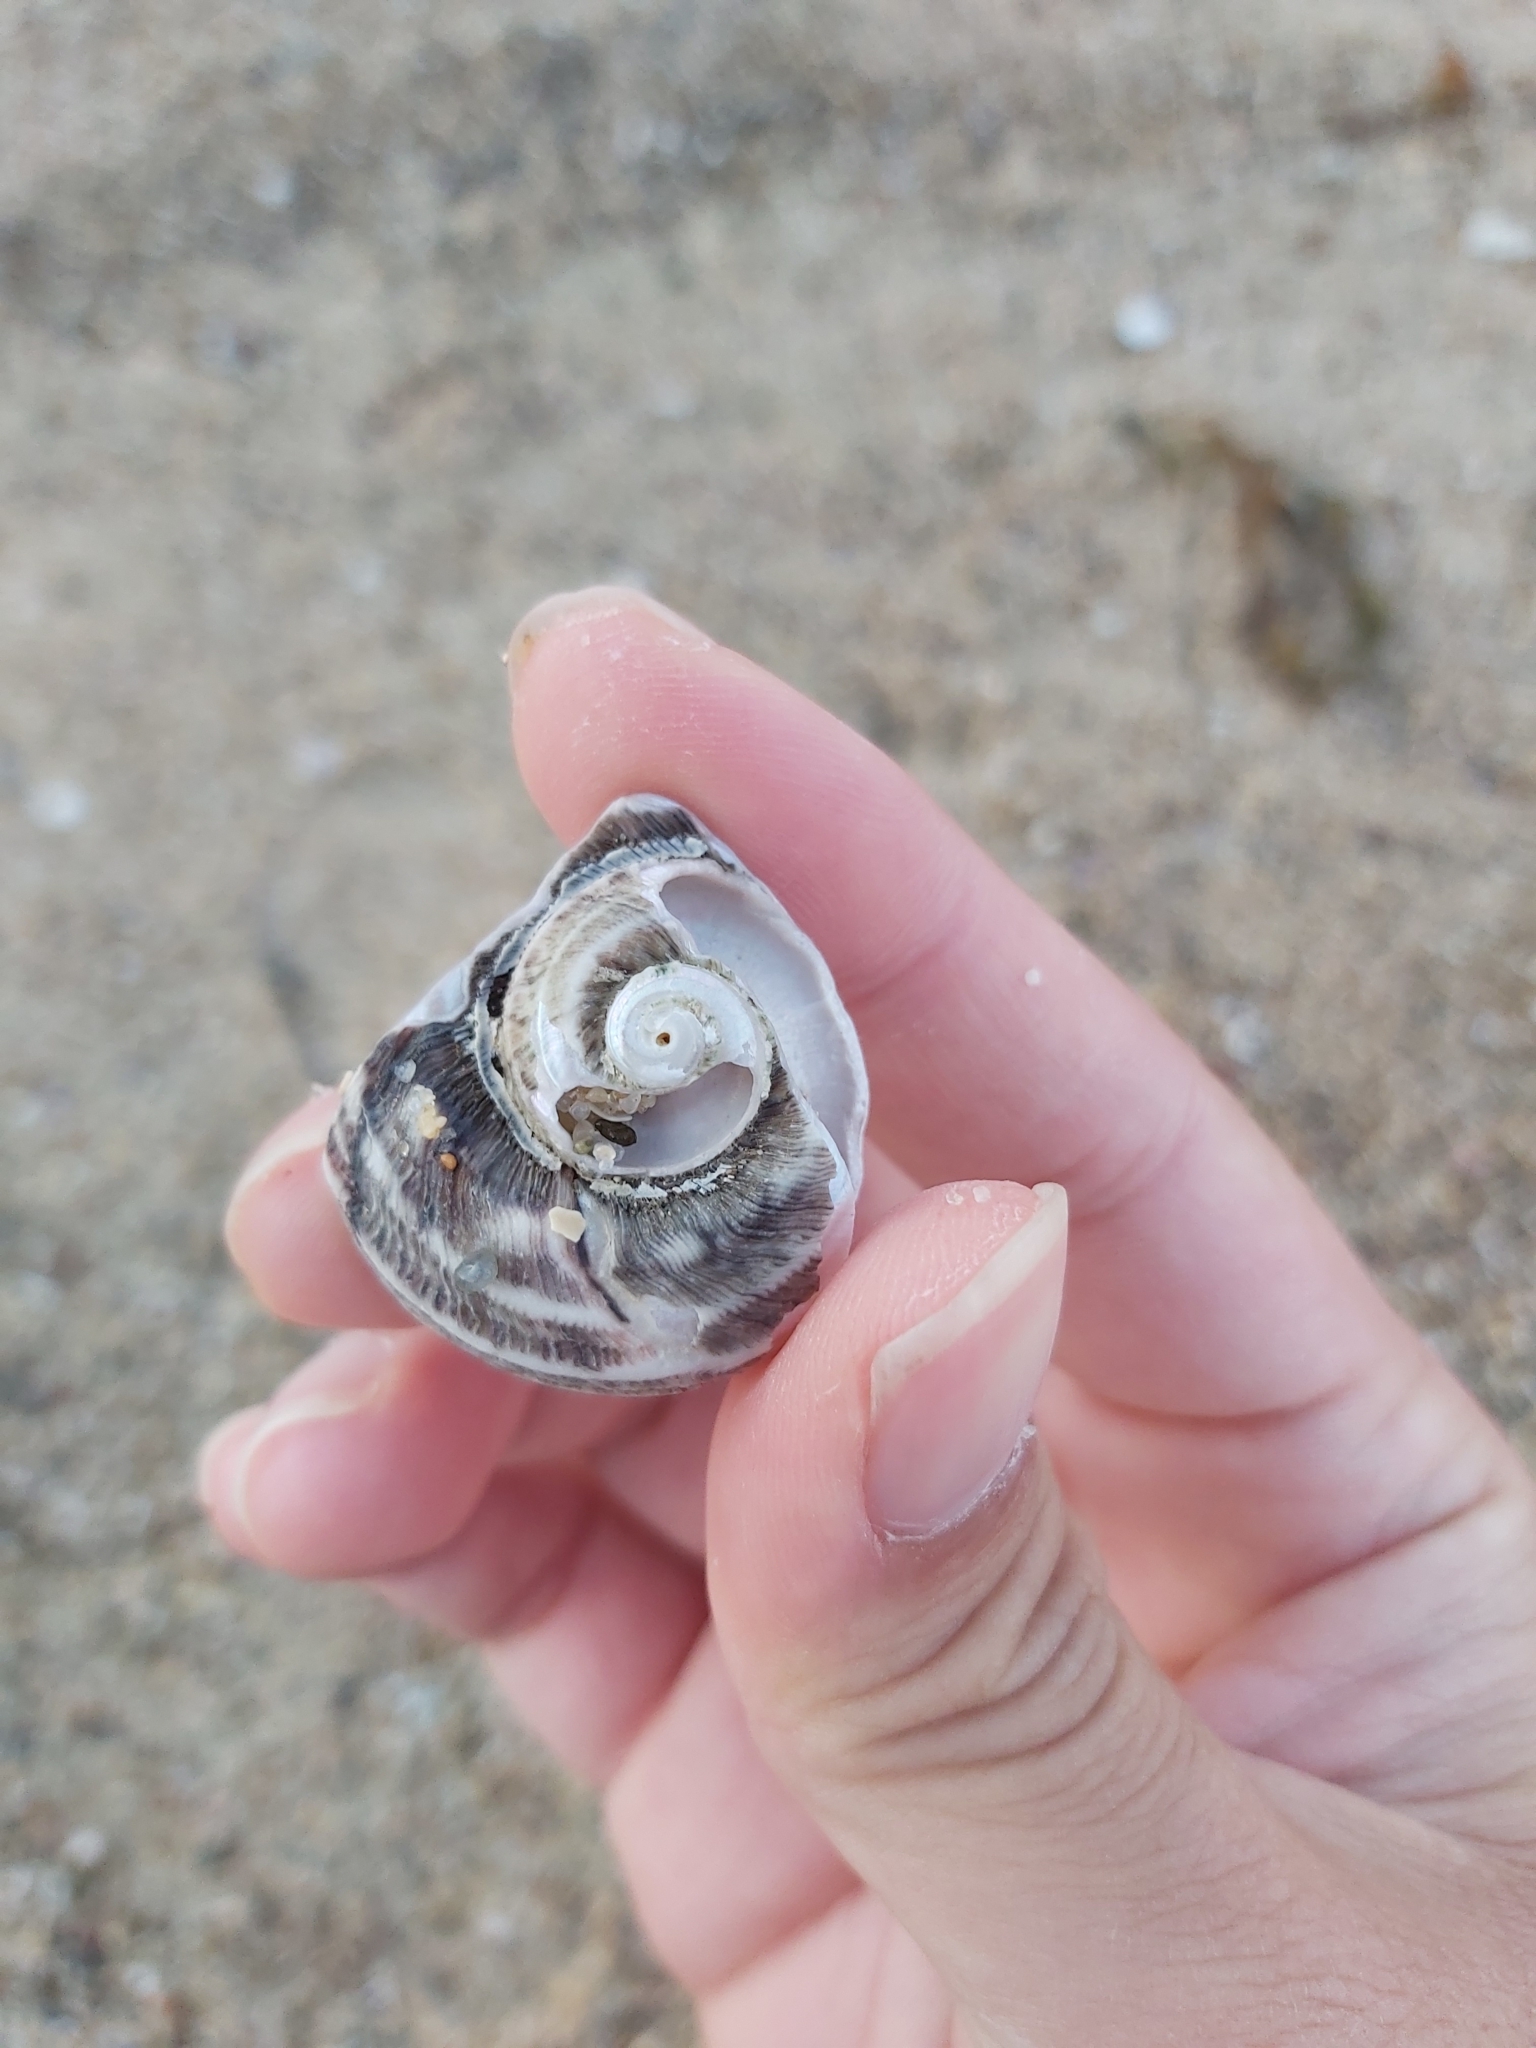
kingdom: Animalia
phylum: Mollusca
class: Gastropoda
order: Trochida
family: Turbinidae
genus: Lunella
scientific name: Lunella torquata
